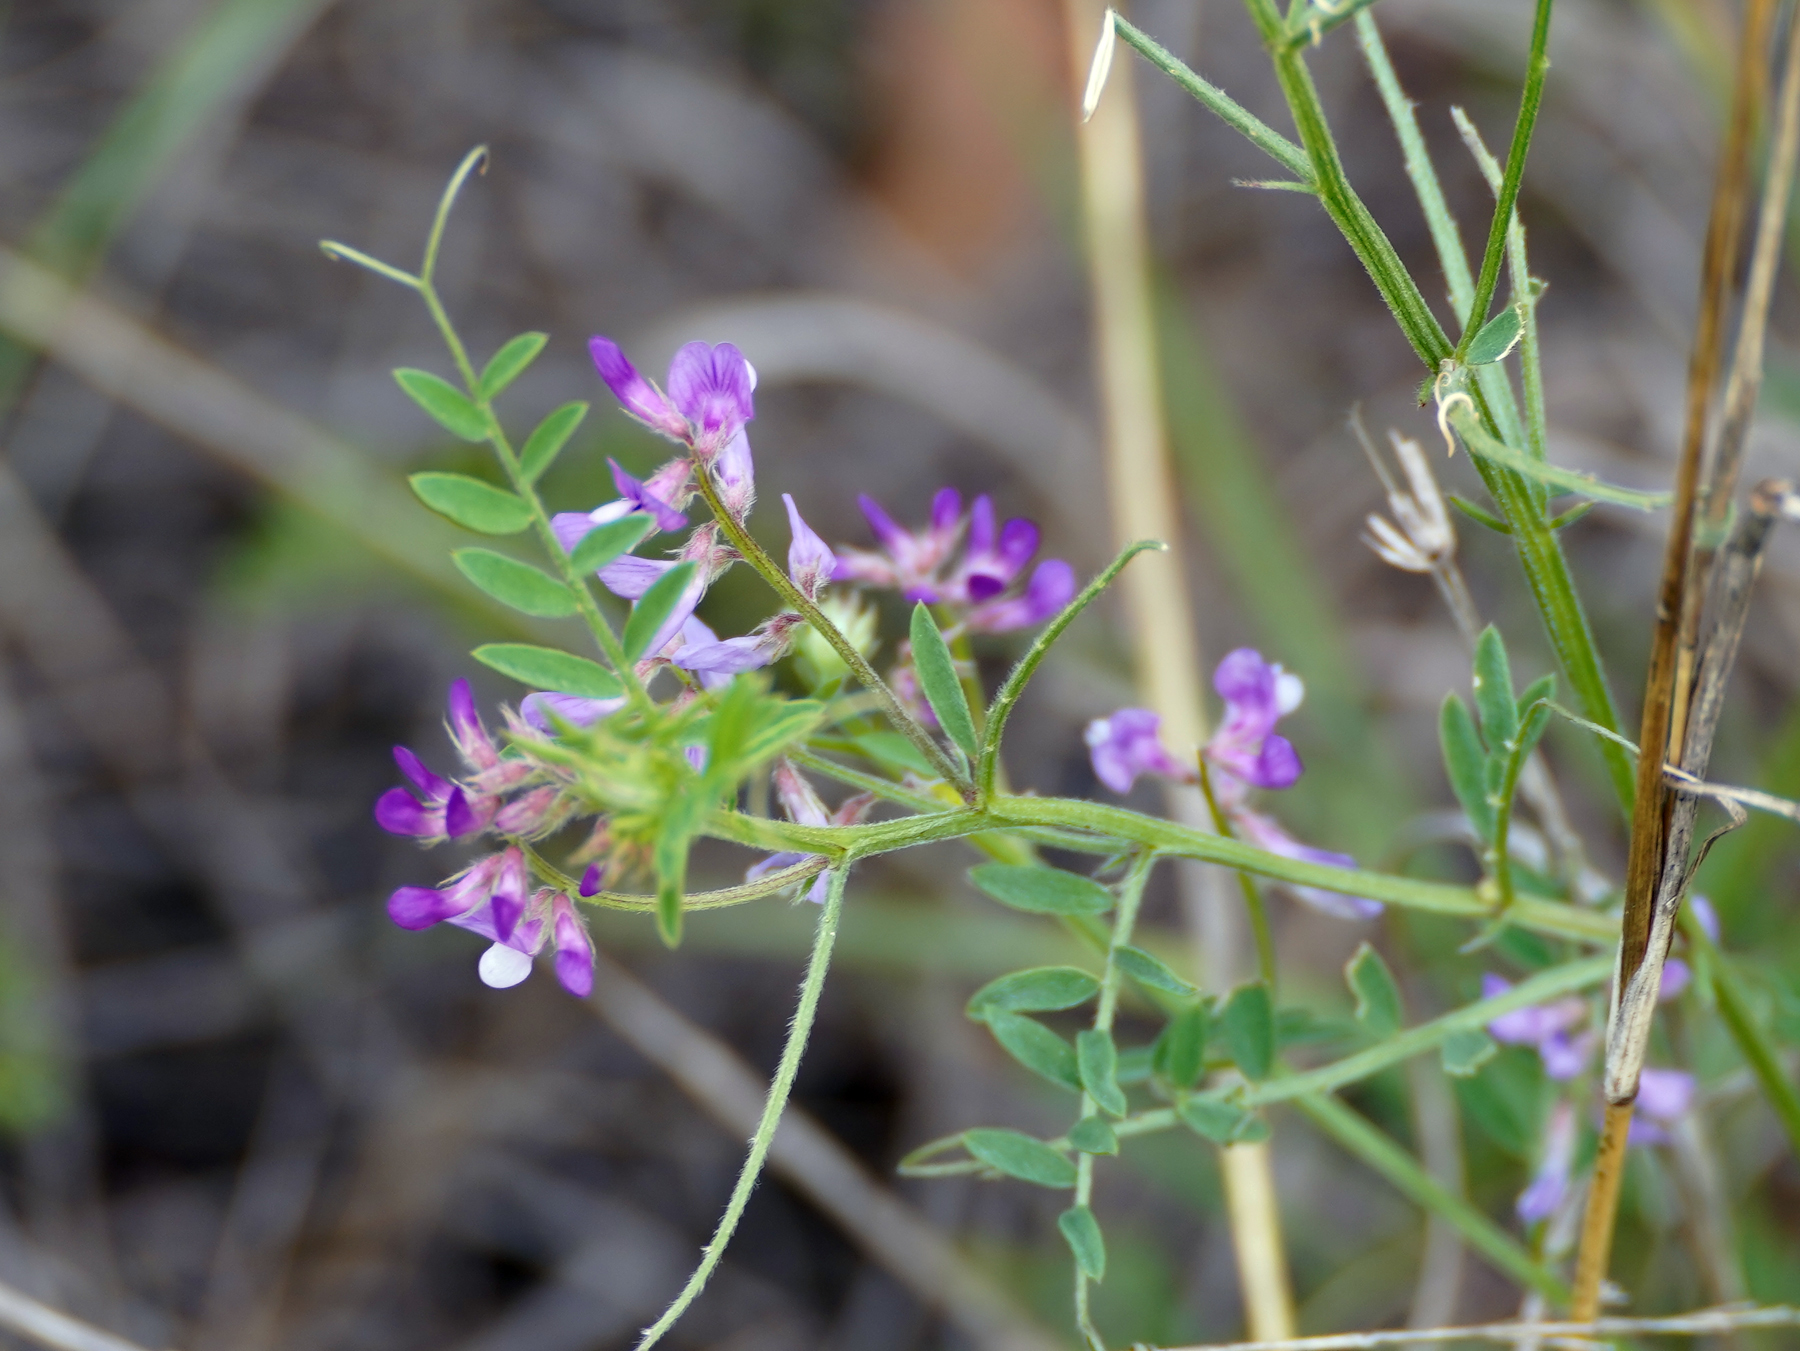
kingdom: Plantae
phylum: Tracheophyta
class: Magnoliopsida
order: Fabales
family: Fabaceae
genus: Vicia
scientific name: Vicia ludoviciana
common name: Louisiana vetch
